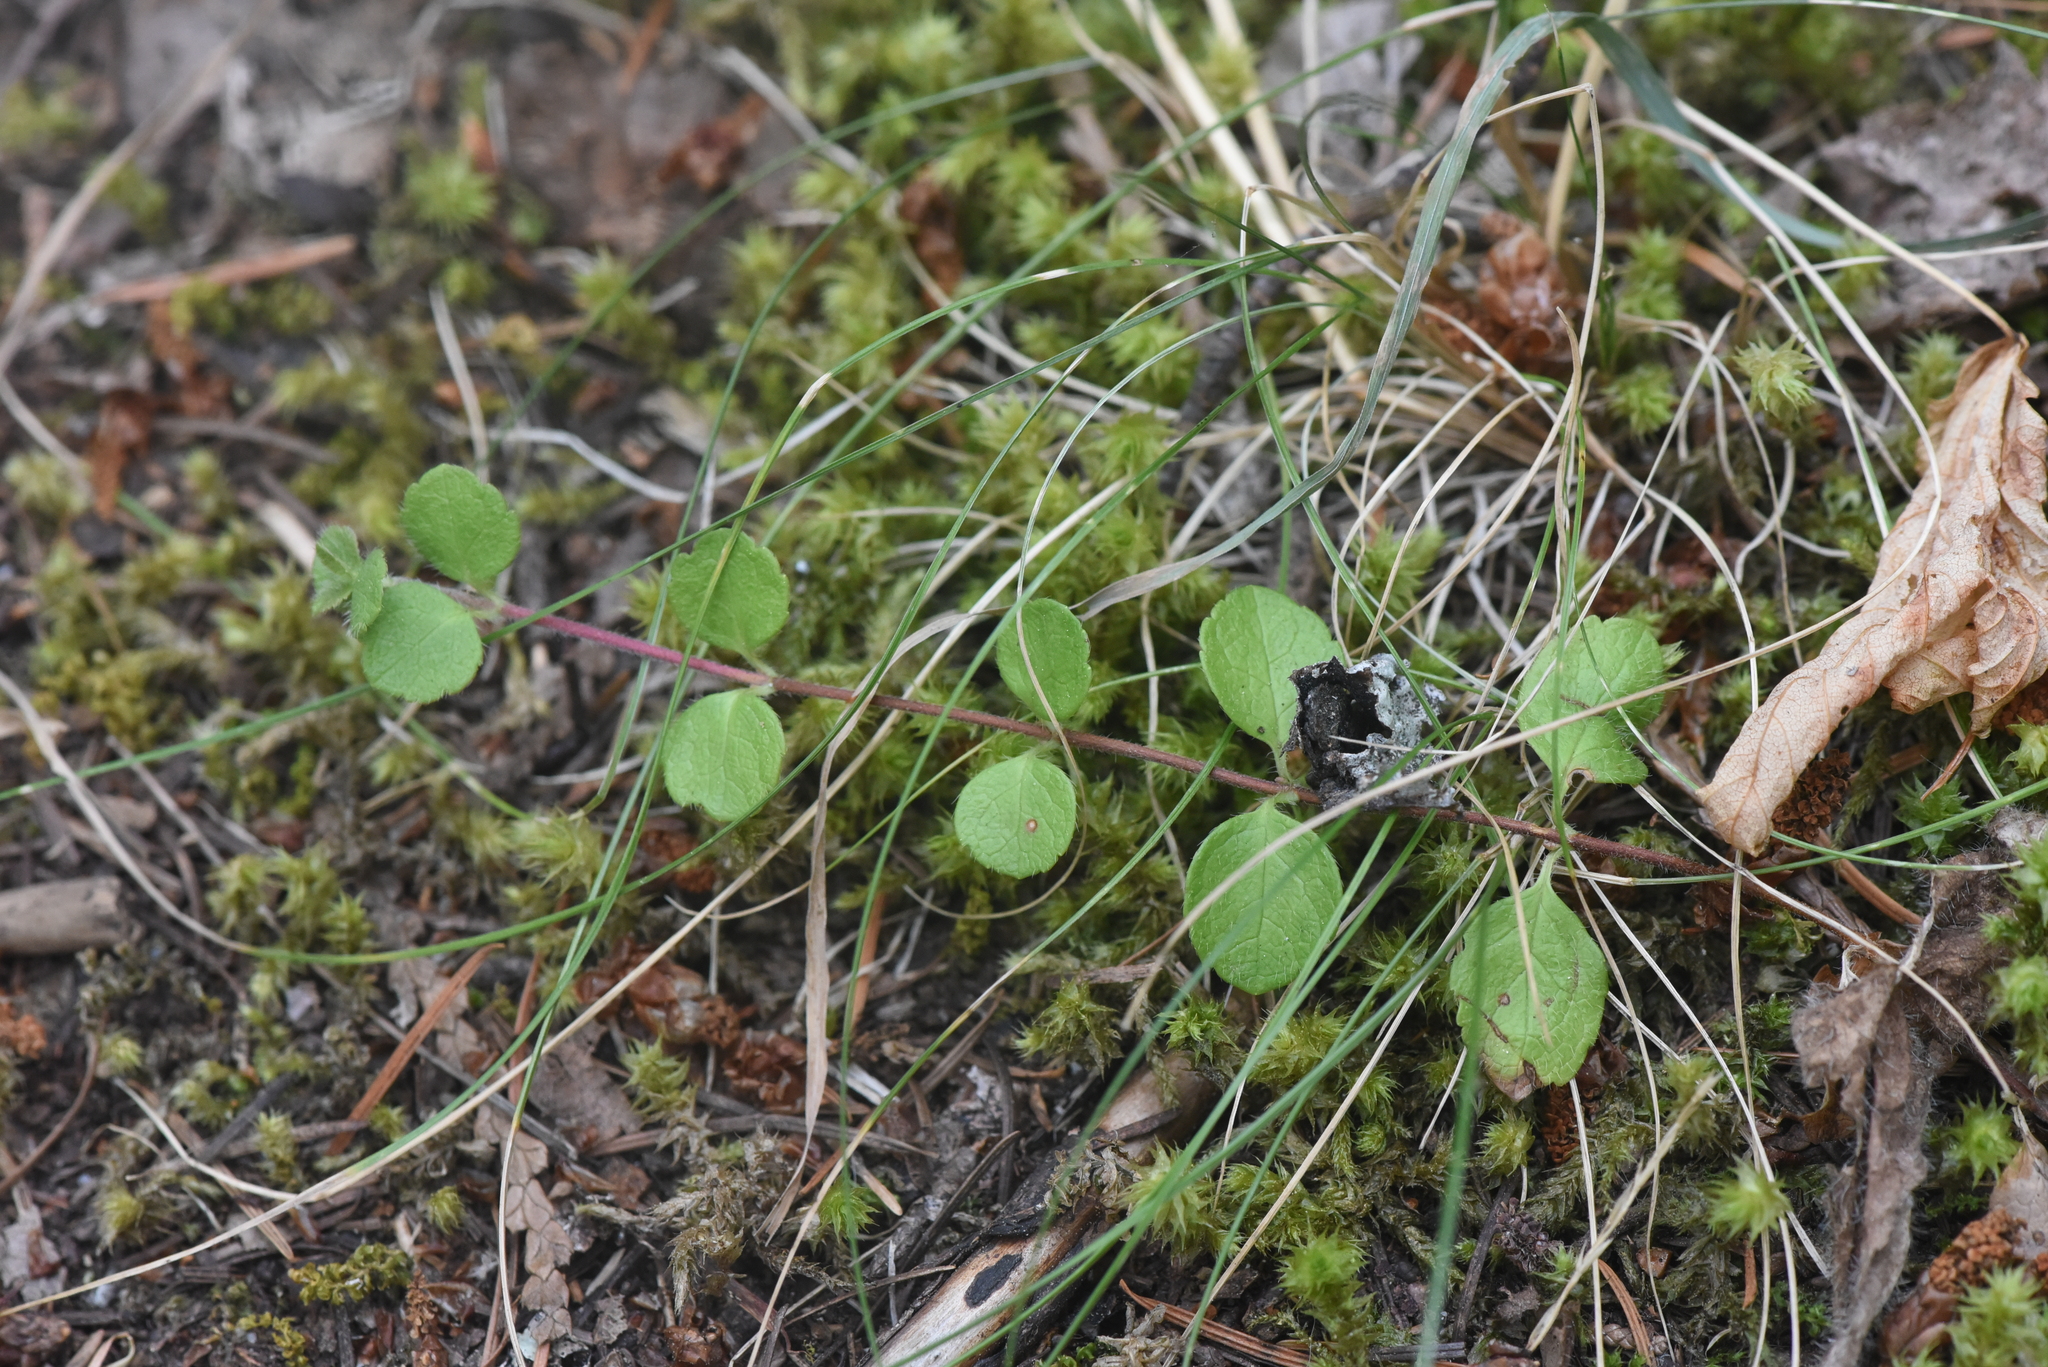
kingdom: Plantae
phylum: Tracheophyta
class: Magnoliopsida
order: Dipsacales
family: Caprifoliaceae
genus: Linnaea
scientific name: Linnaea borealis
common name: Twinflower
